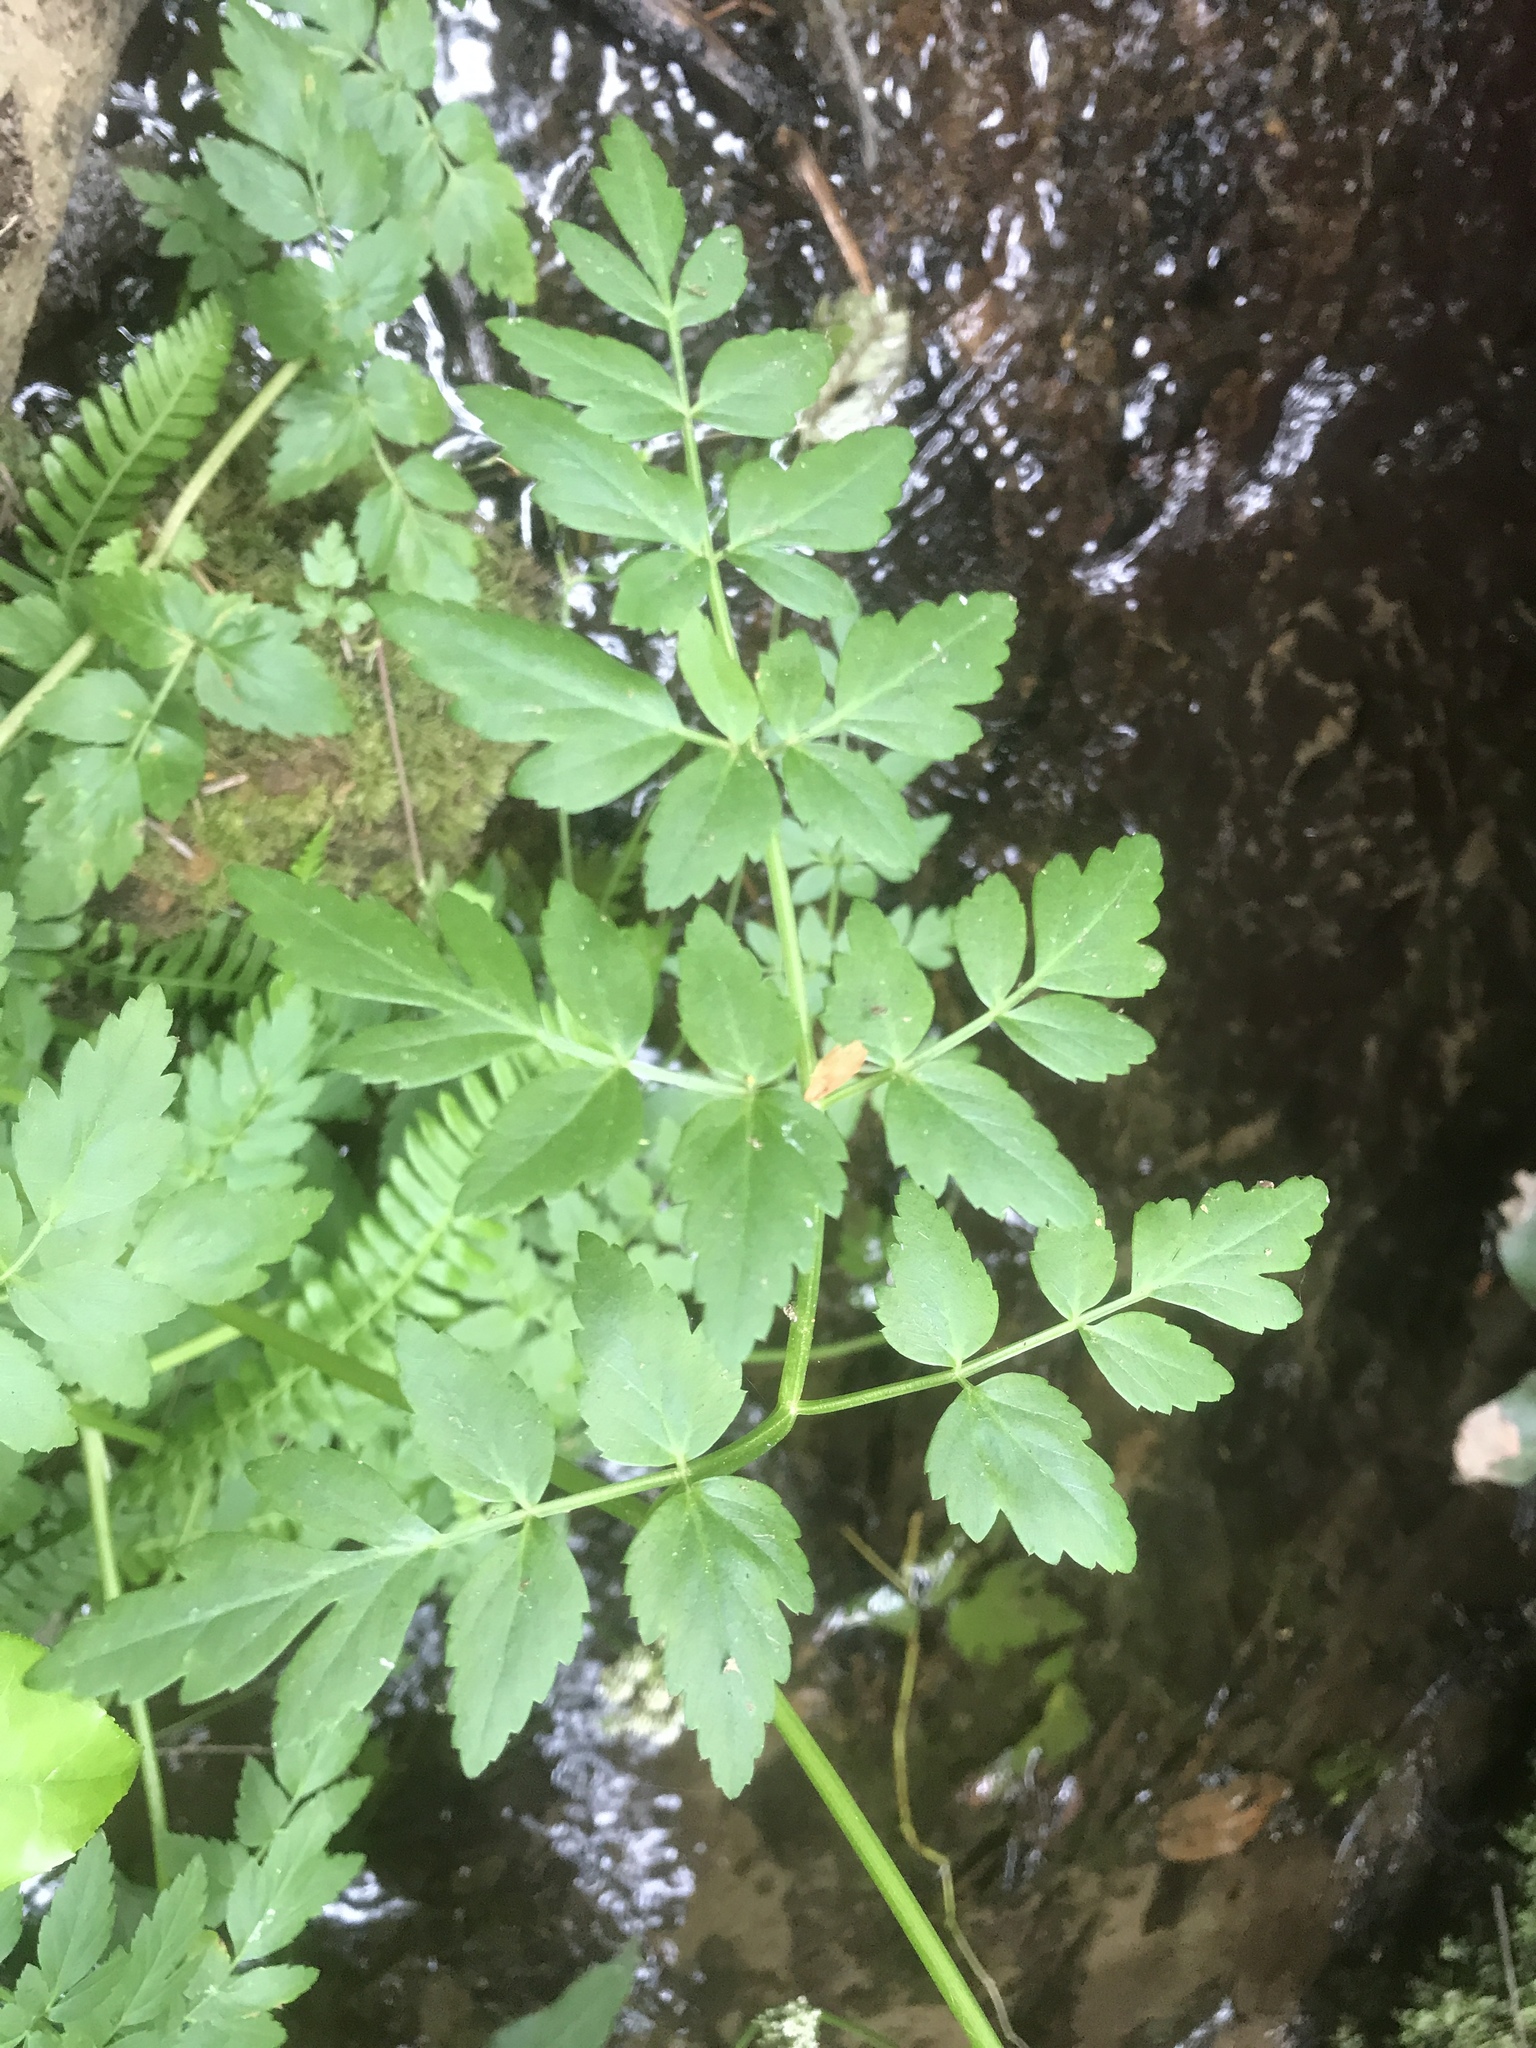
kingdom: Plantae
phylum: Tracheophyta
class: Magnoliopsida
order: Apiales
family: Apiaceae
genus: Oenanthe
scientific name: Oenanthe sarmentosa
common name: American water-parsley
